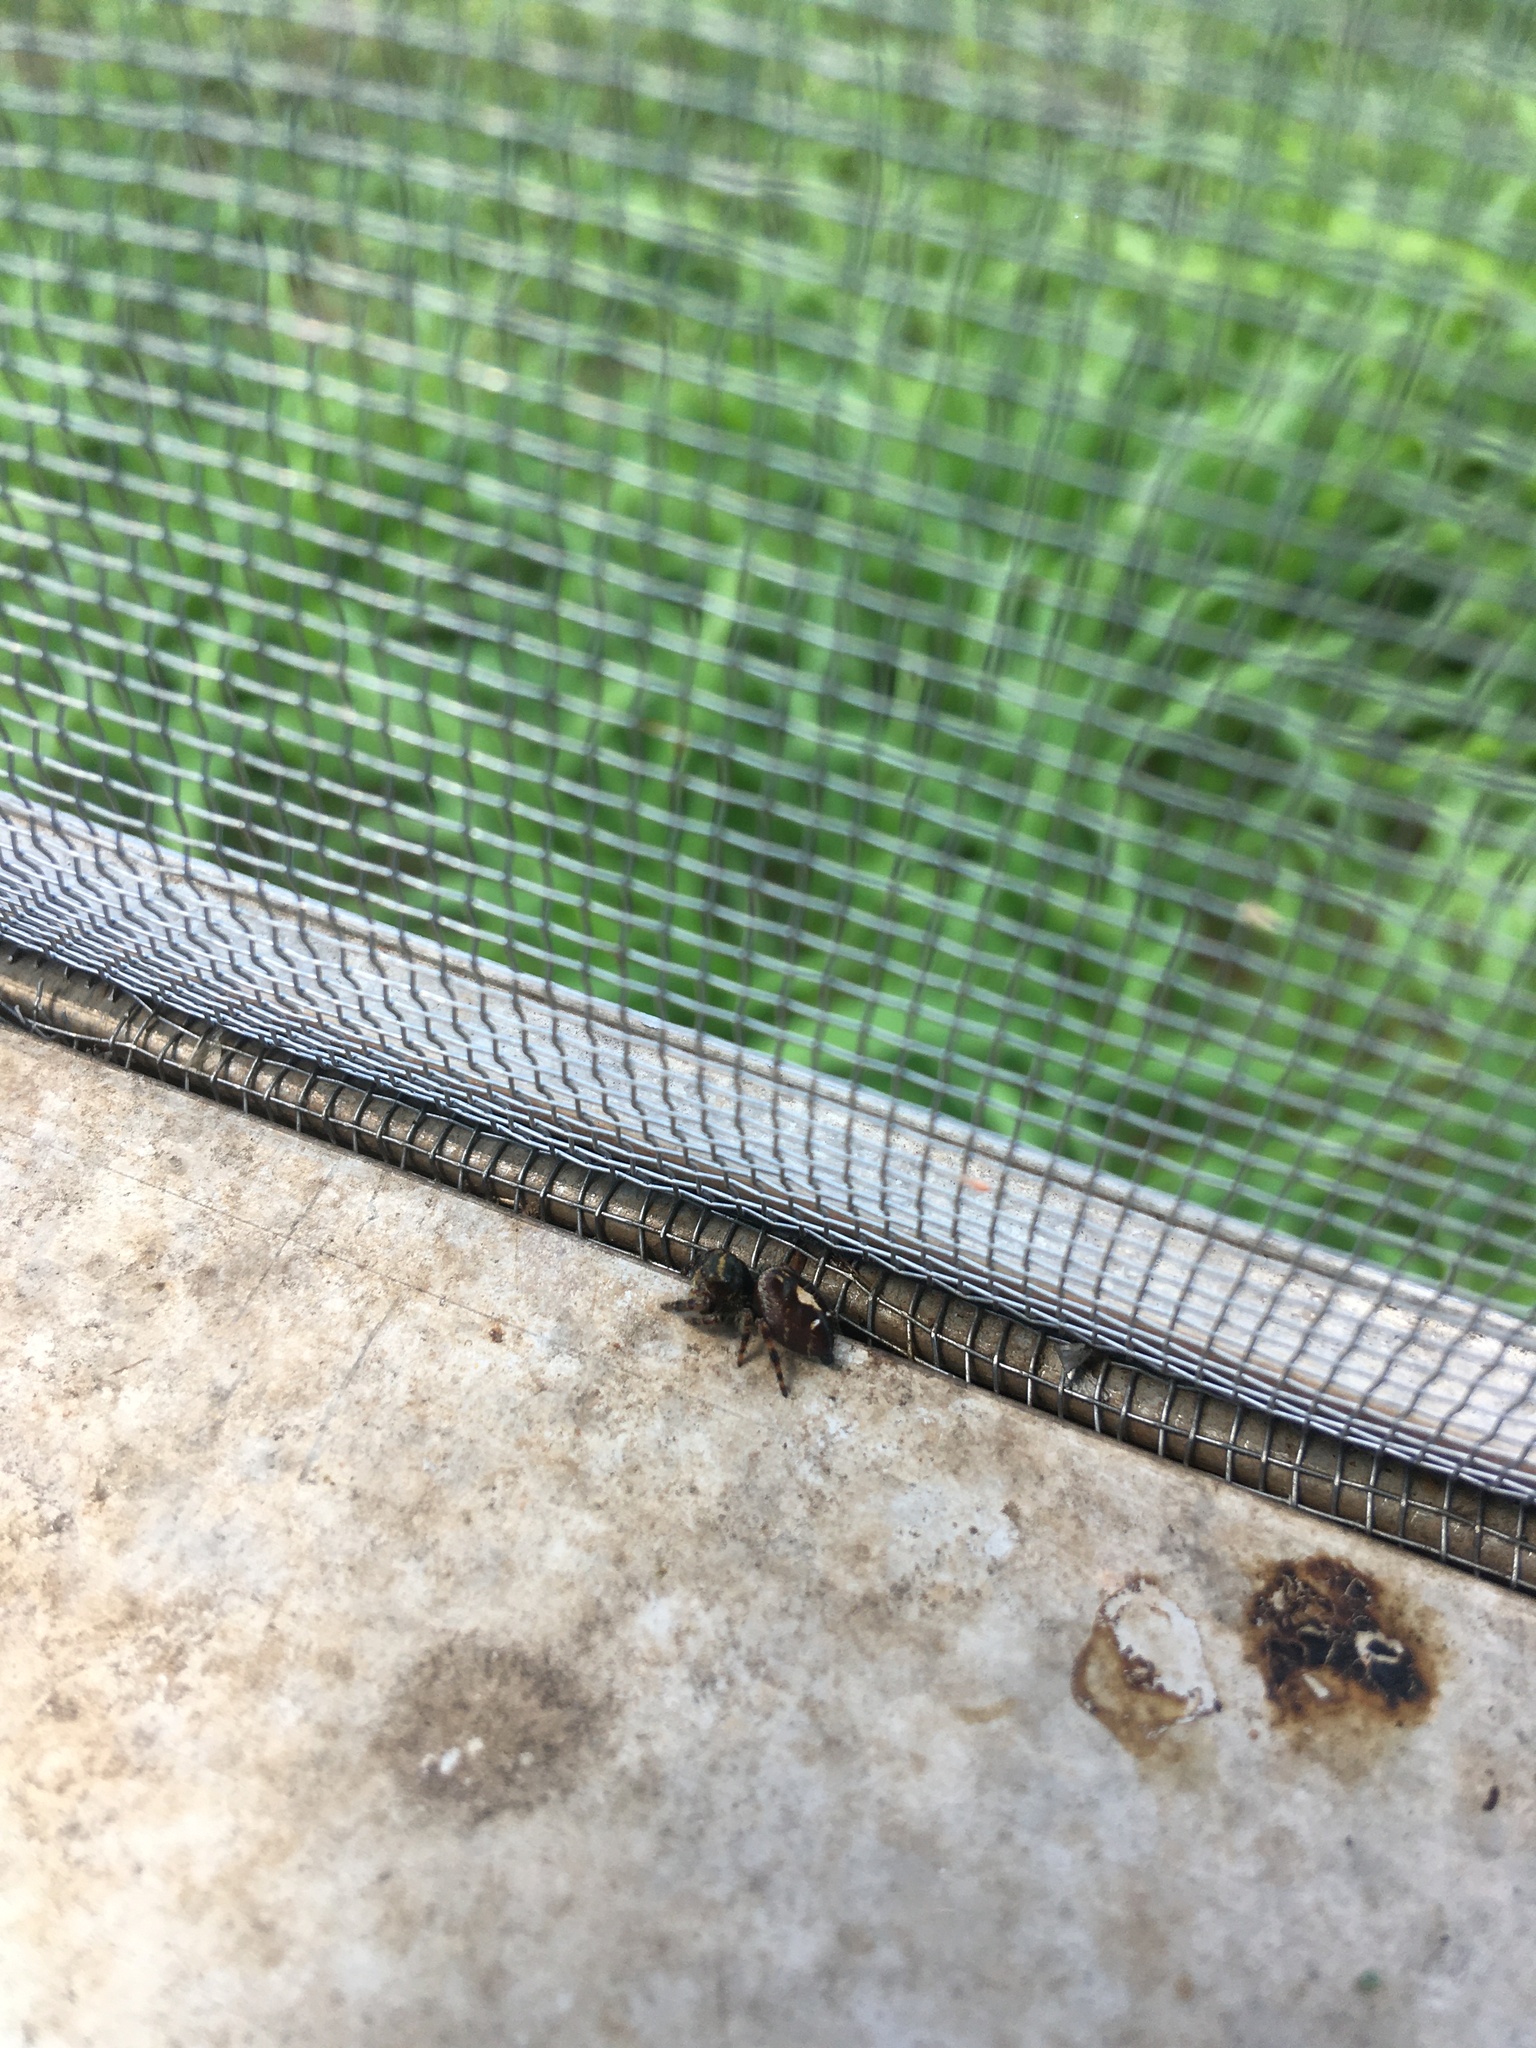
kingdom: Animalia
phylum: Arthropoda
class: Arachnida
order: Araneae
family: Salticidae
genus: Phidippus
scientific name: Phidippus audax
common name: Bold jumper
